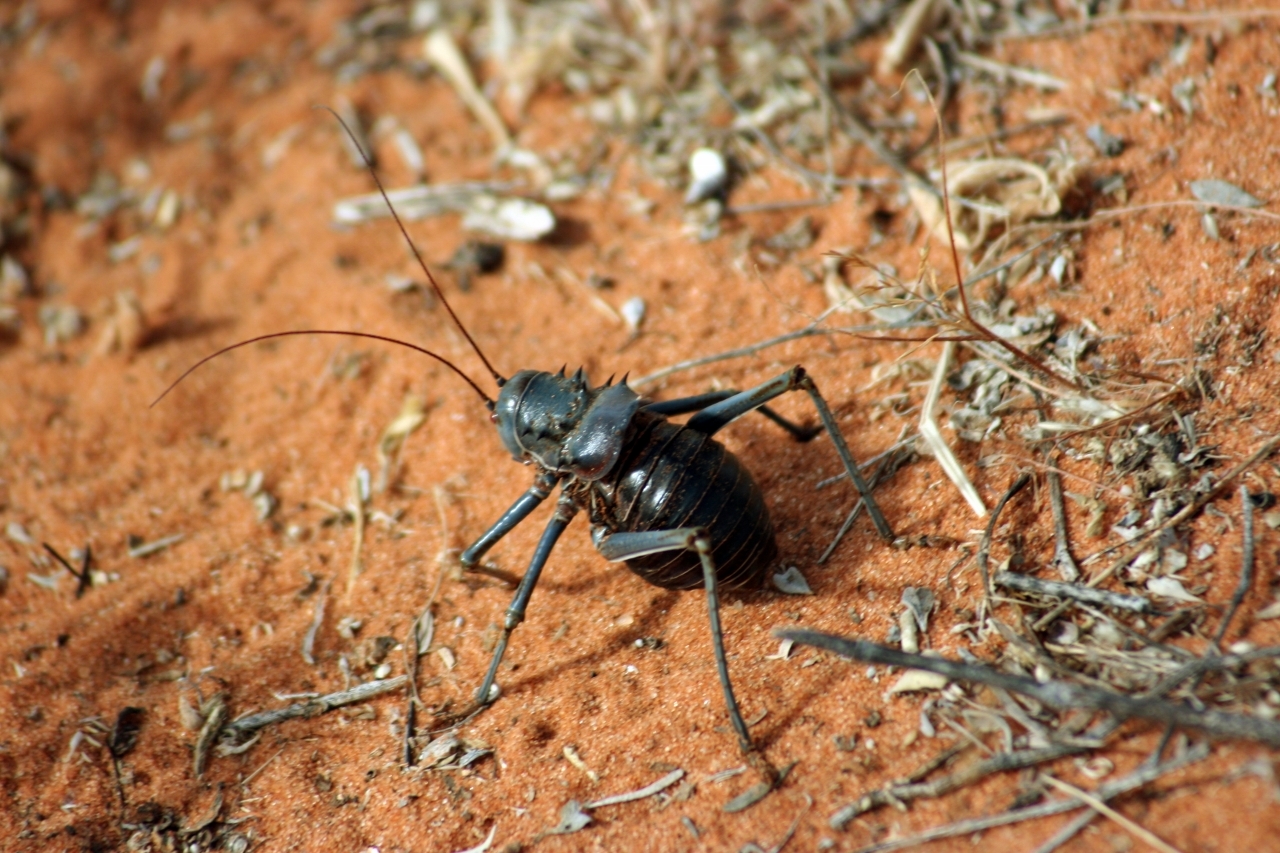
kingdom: Animalia
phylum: Arthropoda
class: Insecta
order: Orthoptera
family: Tettigoniidae
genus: Acanthoplus
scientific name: Acanthoplus discoidalis
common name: Armoured katydid
